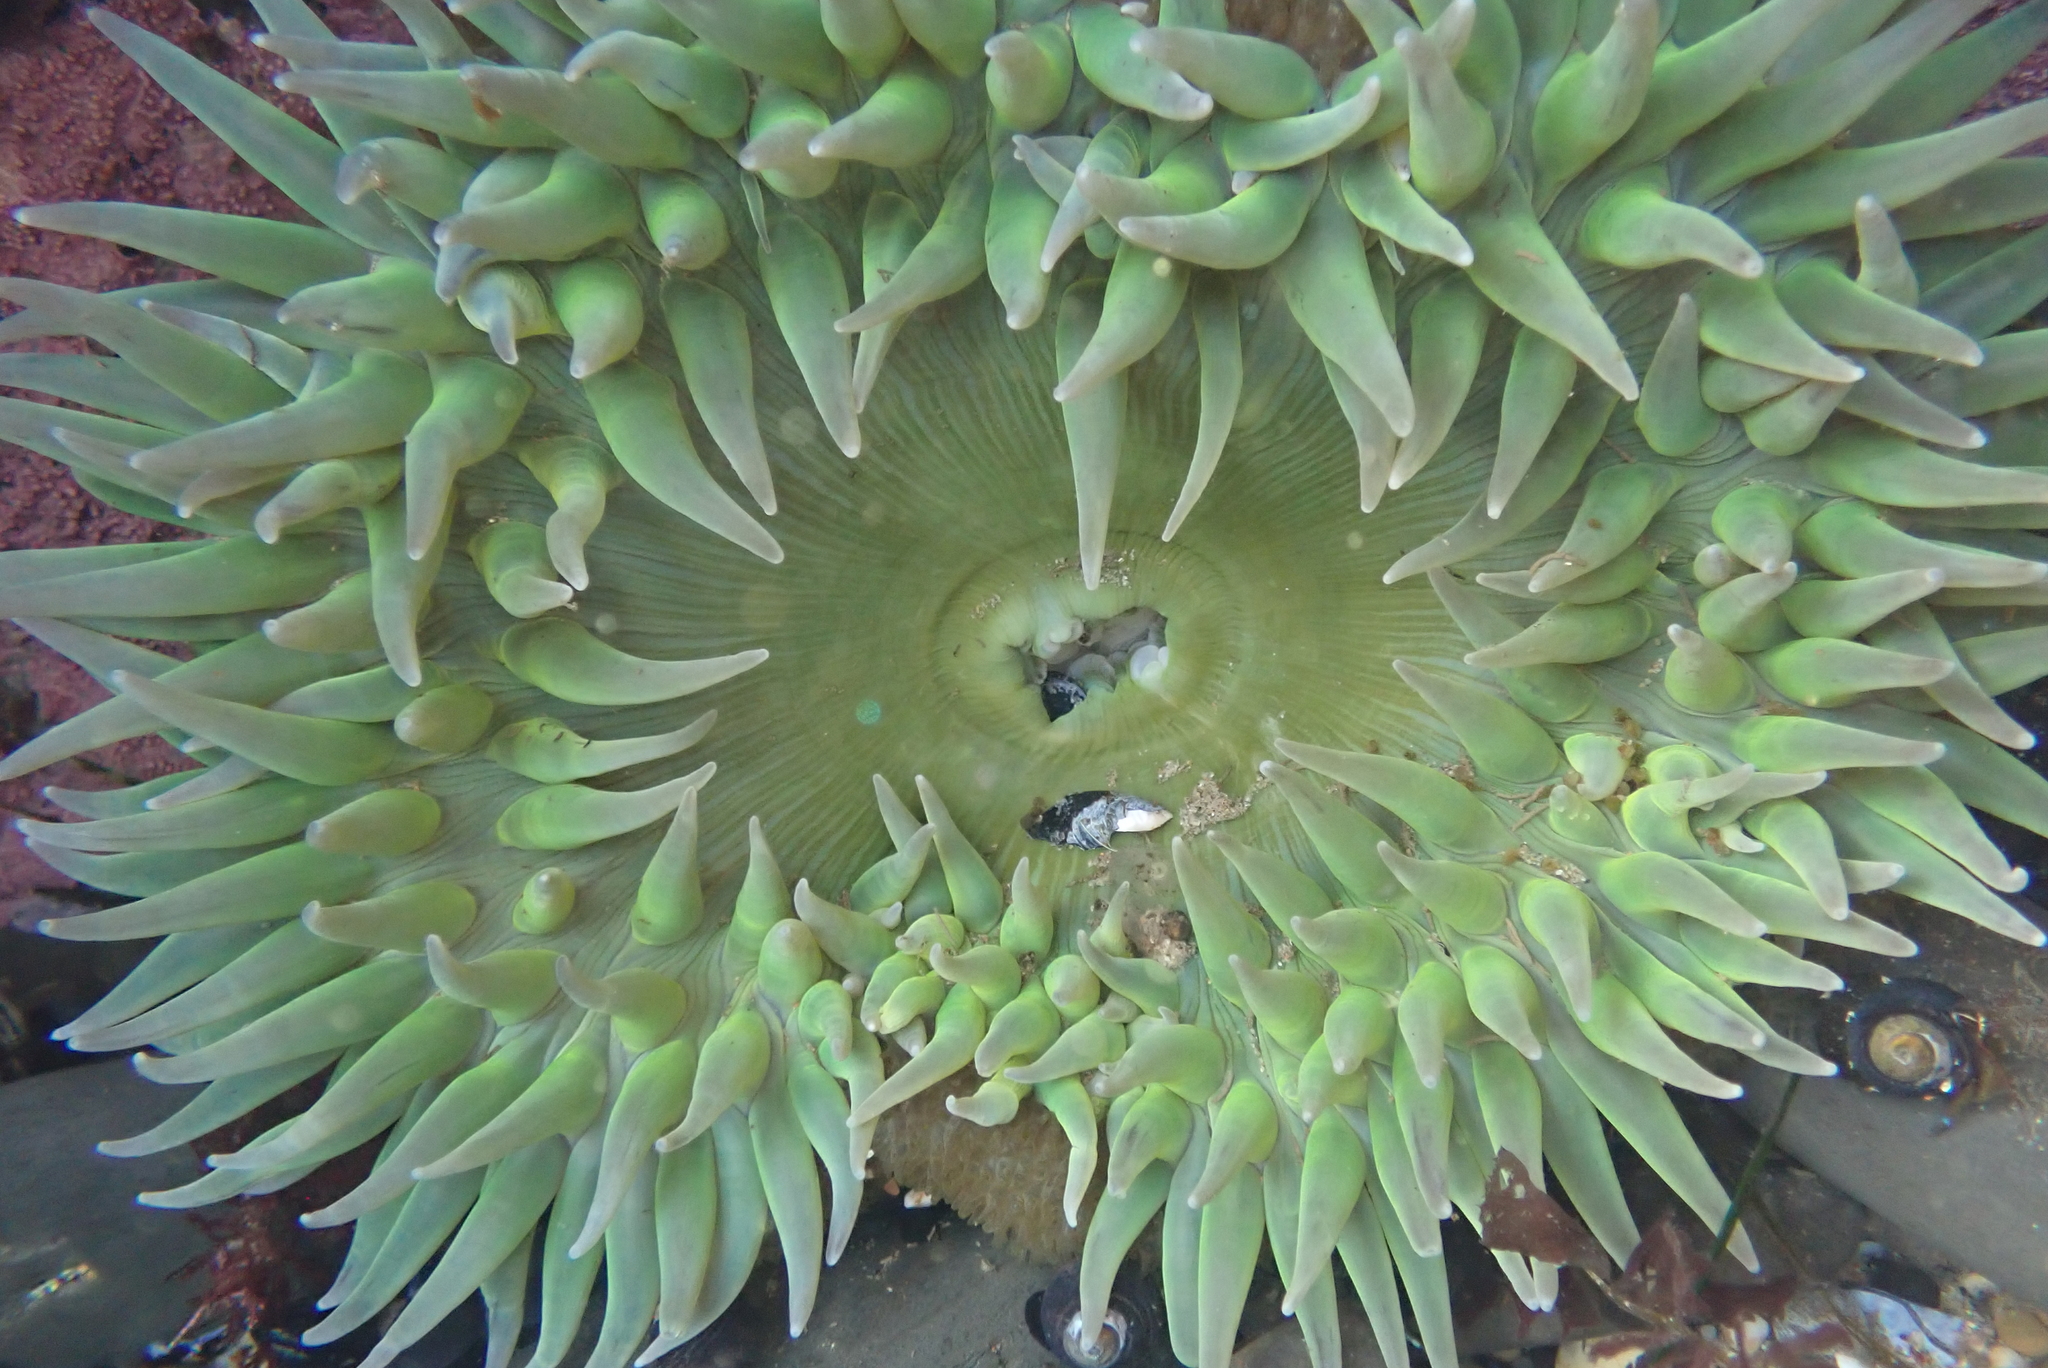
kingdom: Animalia
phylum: Cnidaria
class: Anthozoa
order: Actiniaria
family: Actiniidae
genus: Anthopleura
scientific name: Anthopleura xanthogrammica
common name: Giant green anemone
